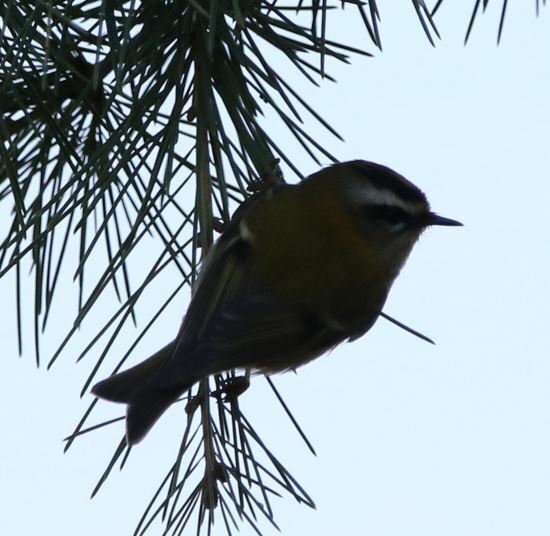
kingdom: Animalia
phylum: Chordata
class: Aves
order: Passeriformes
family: Regulidae
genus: Regulus
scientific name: Regulus ignicapilla
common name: Firecrest
